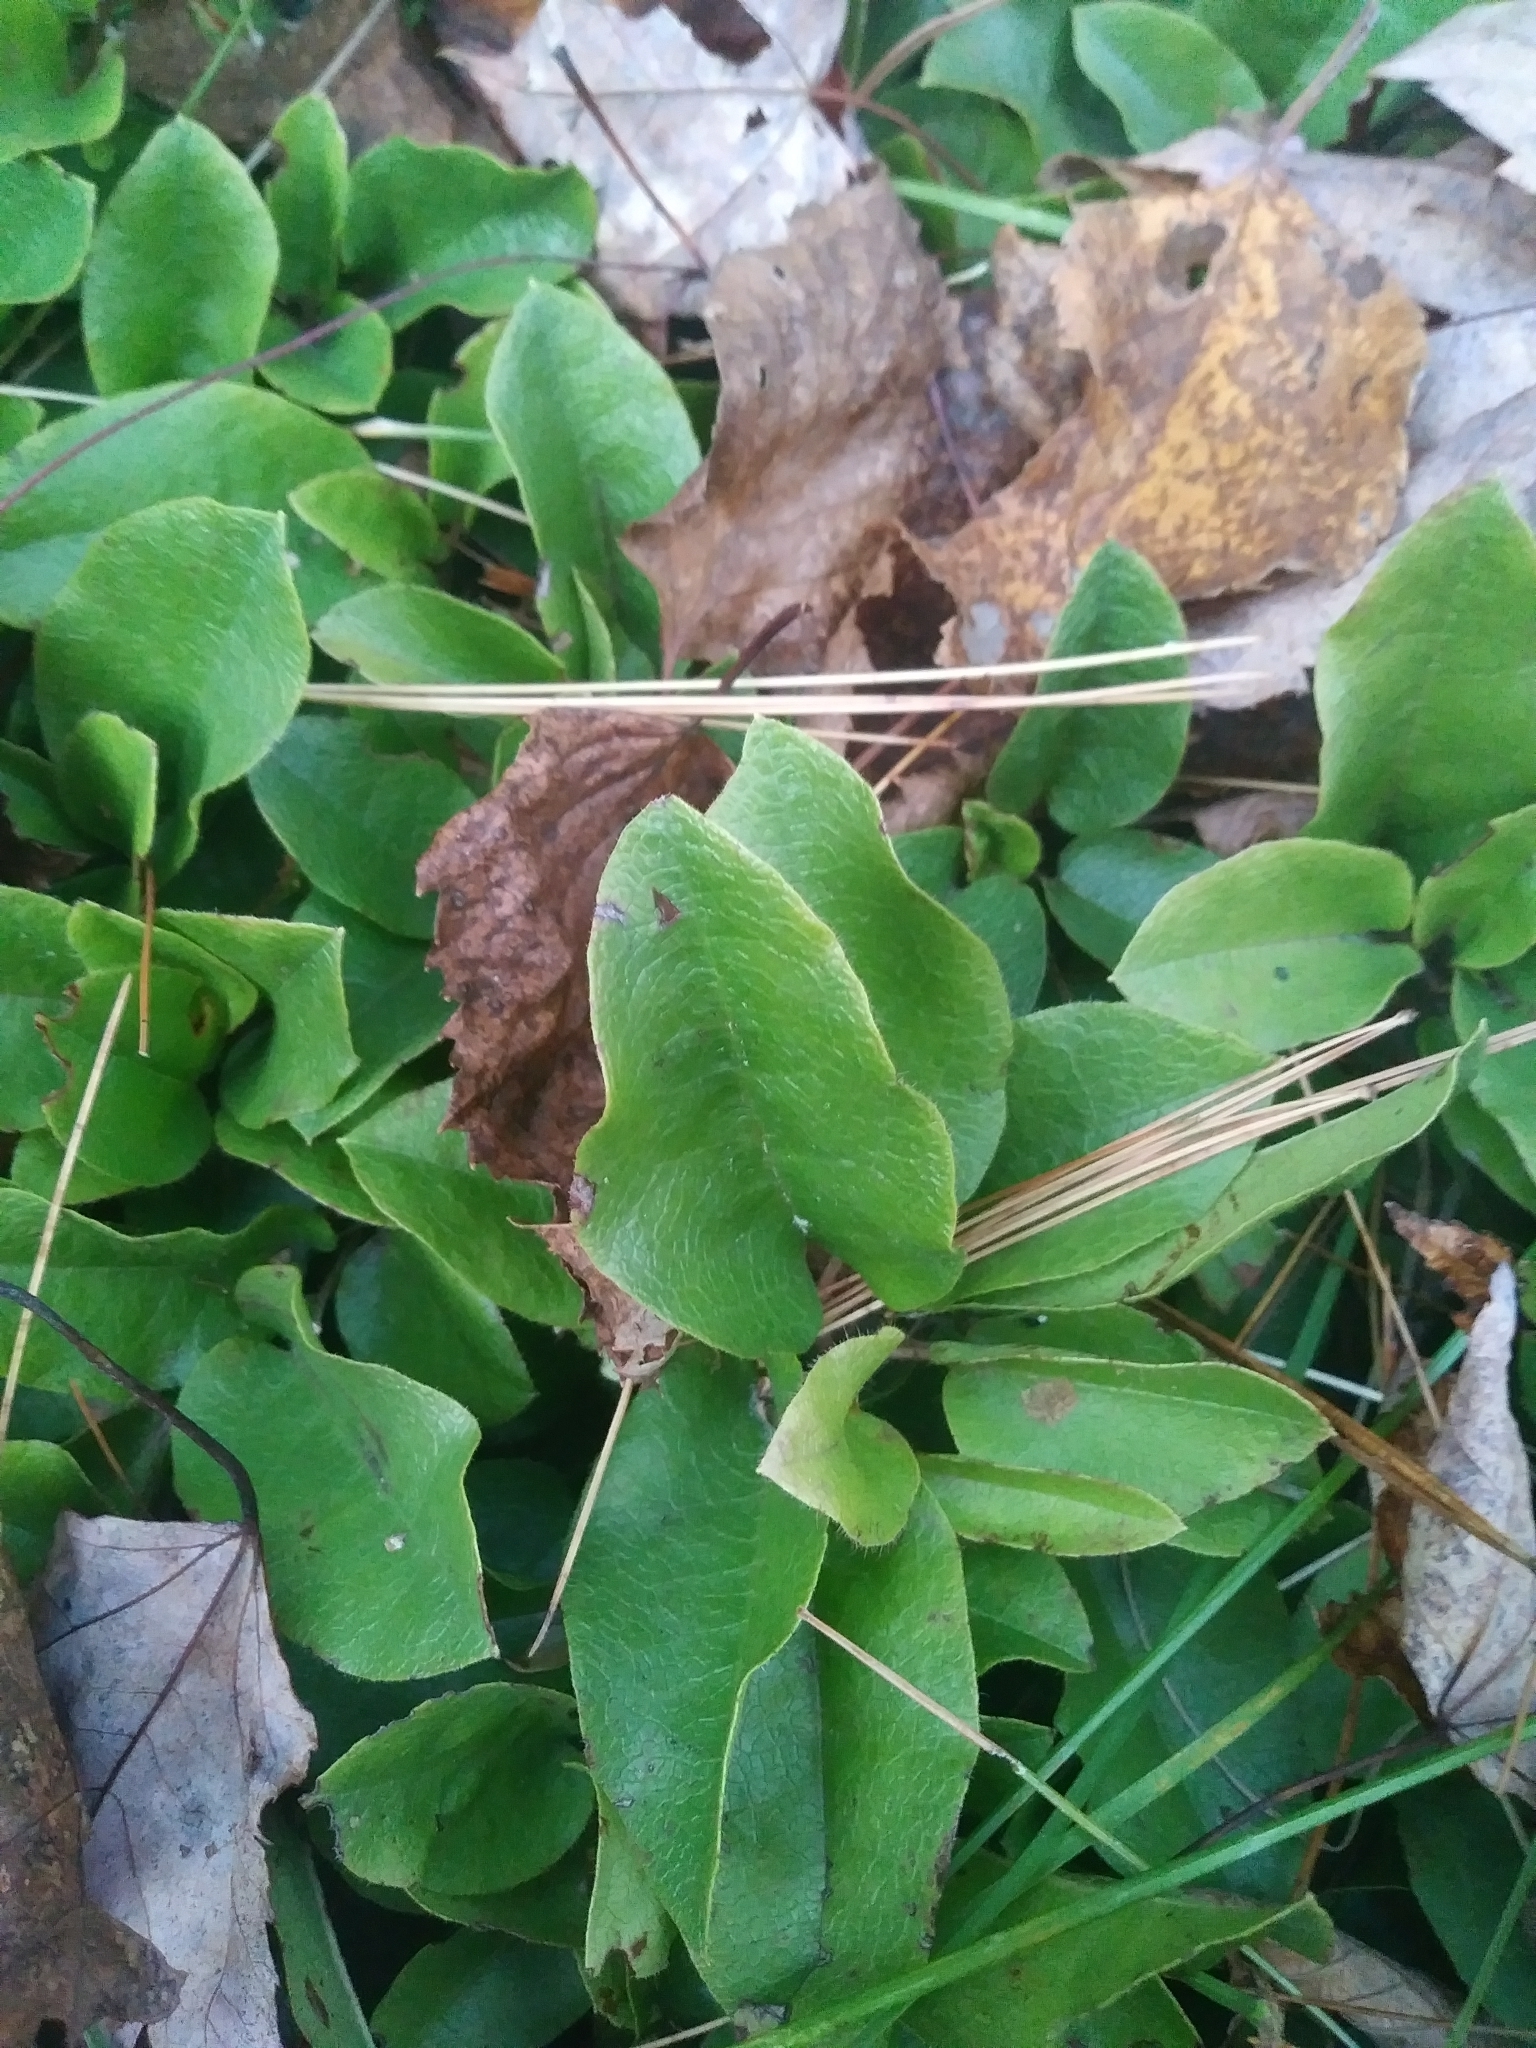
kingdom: Plantae
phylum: Tracheophyta
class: Magnoliopsida
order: Ericales
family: Ericaceae
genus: Epigaea
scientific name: Epigaea repens
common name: Gravelroot
